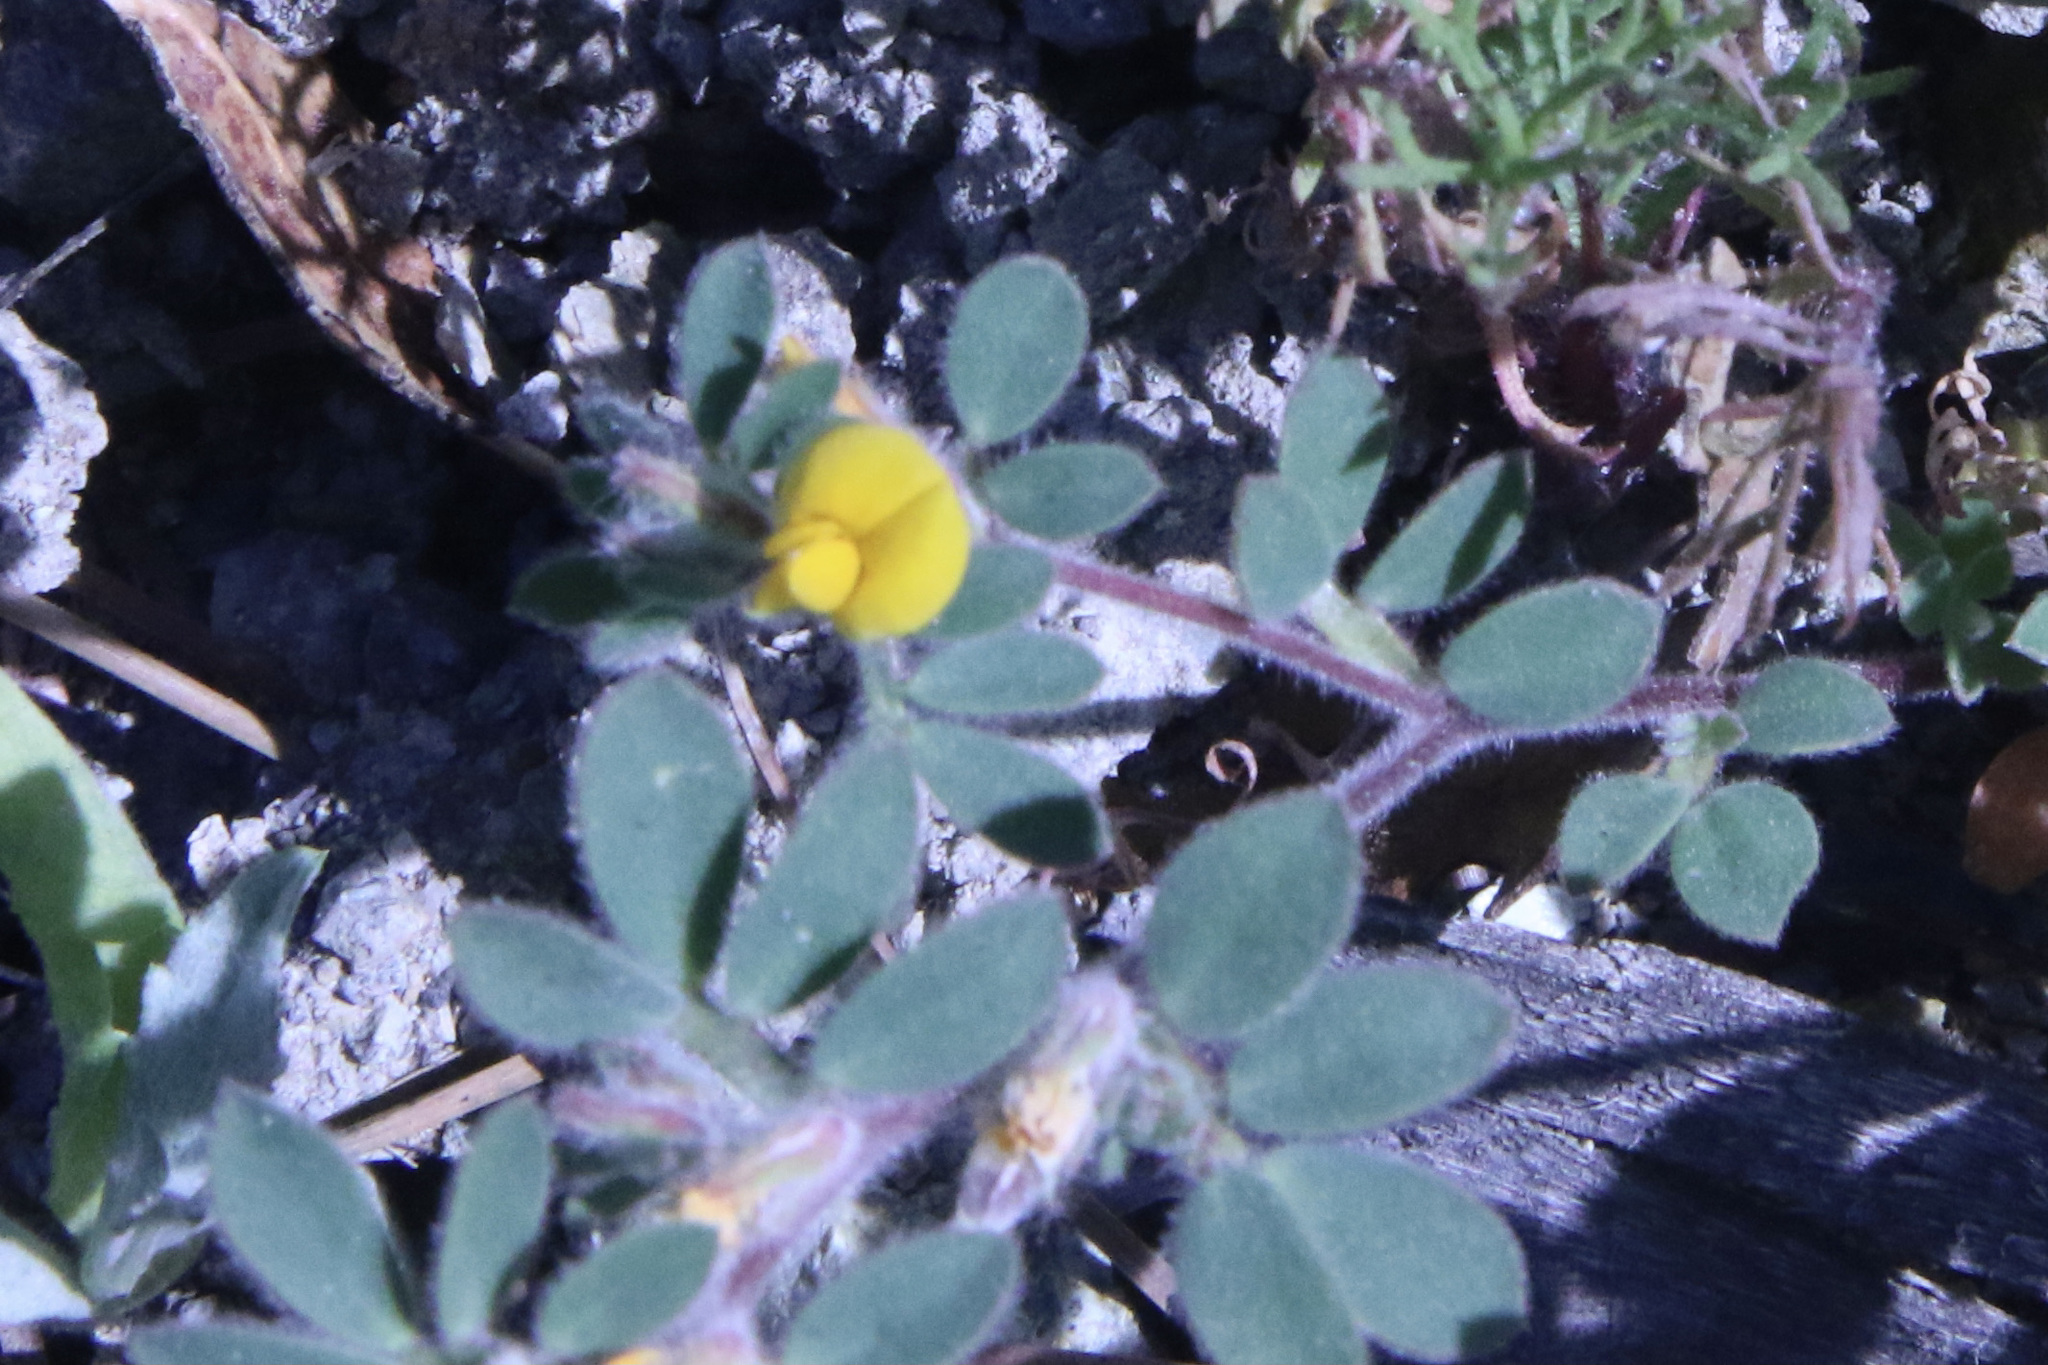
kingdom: Plantae
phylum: Tracheophyta
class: Magnoliopsida
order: Fabales
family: Fabaceae
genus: Acmispon
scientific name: Acmispon brachycarpus
